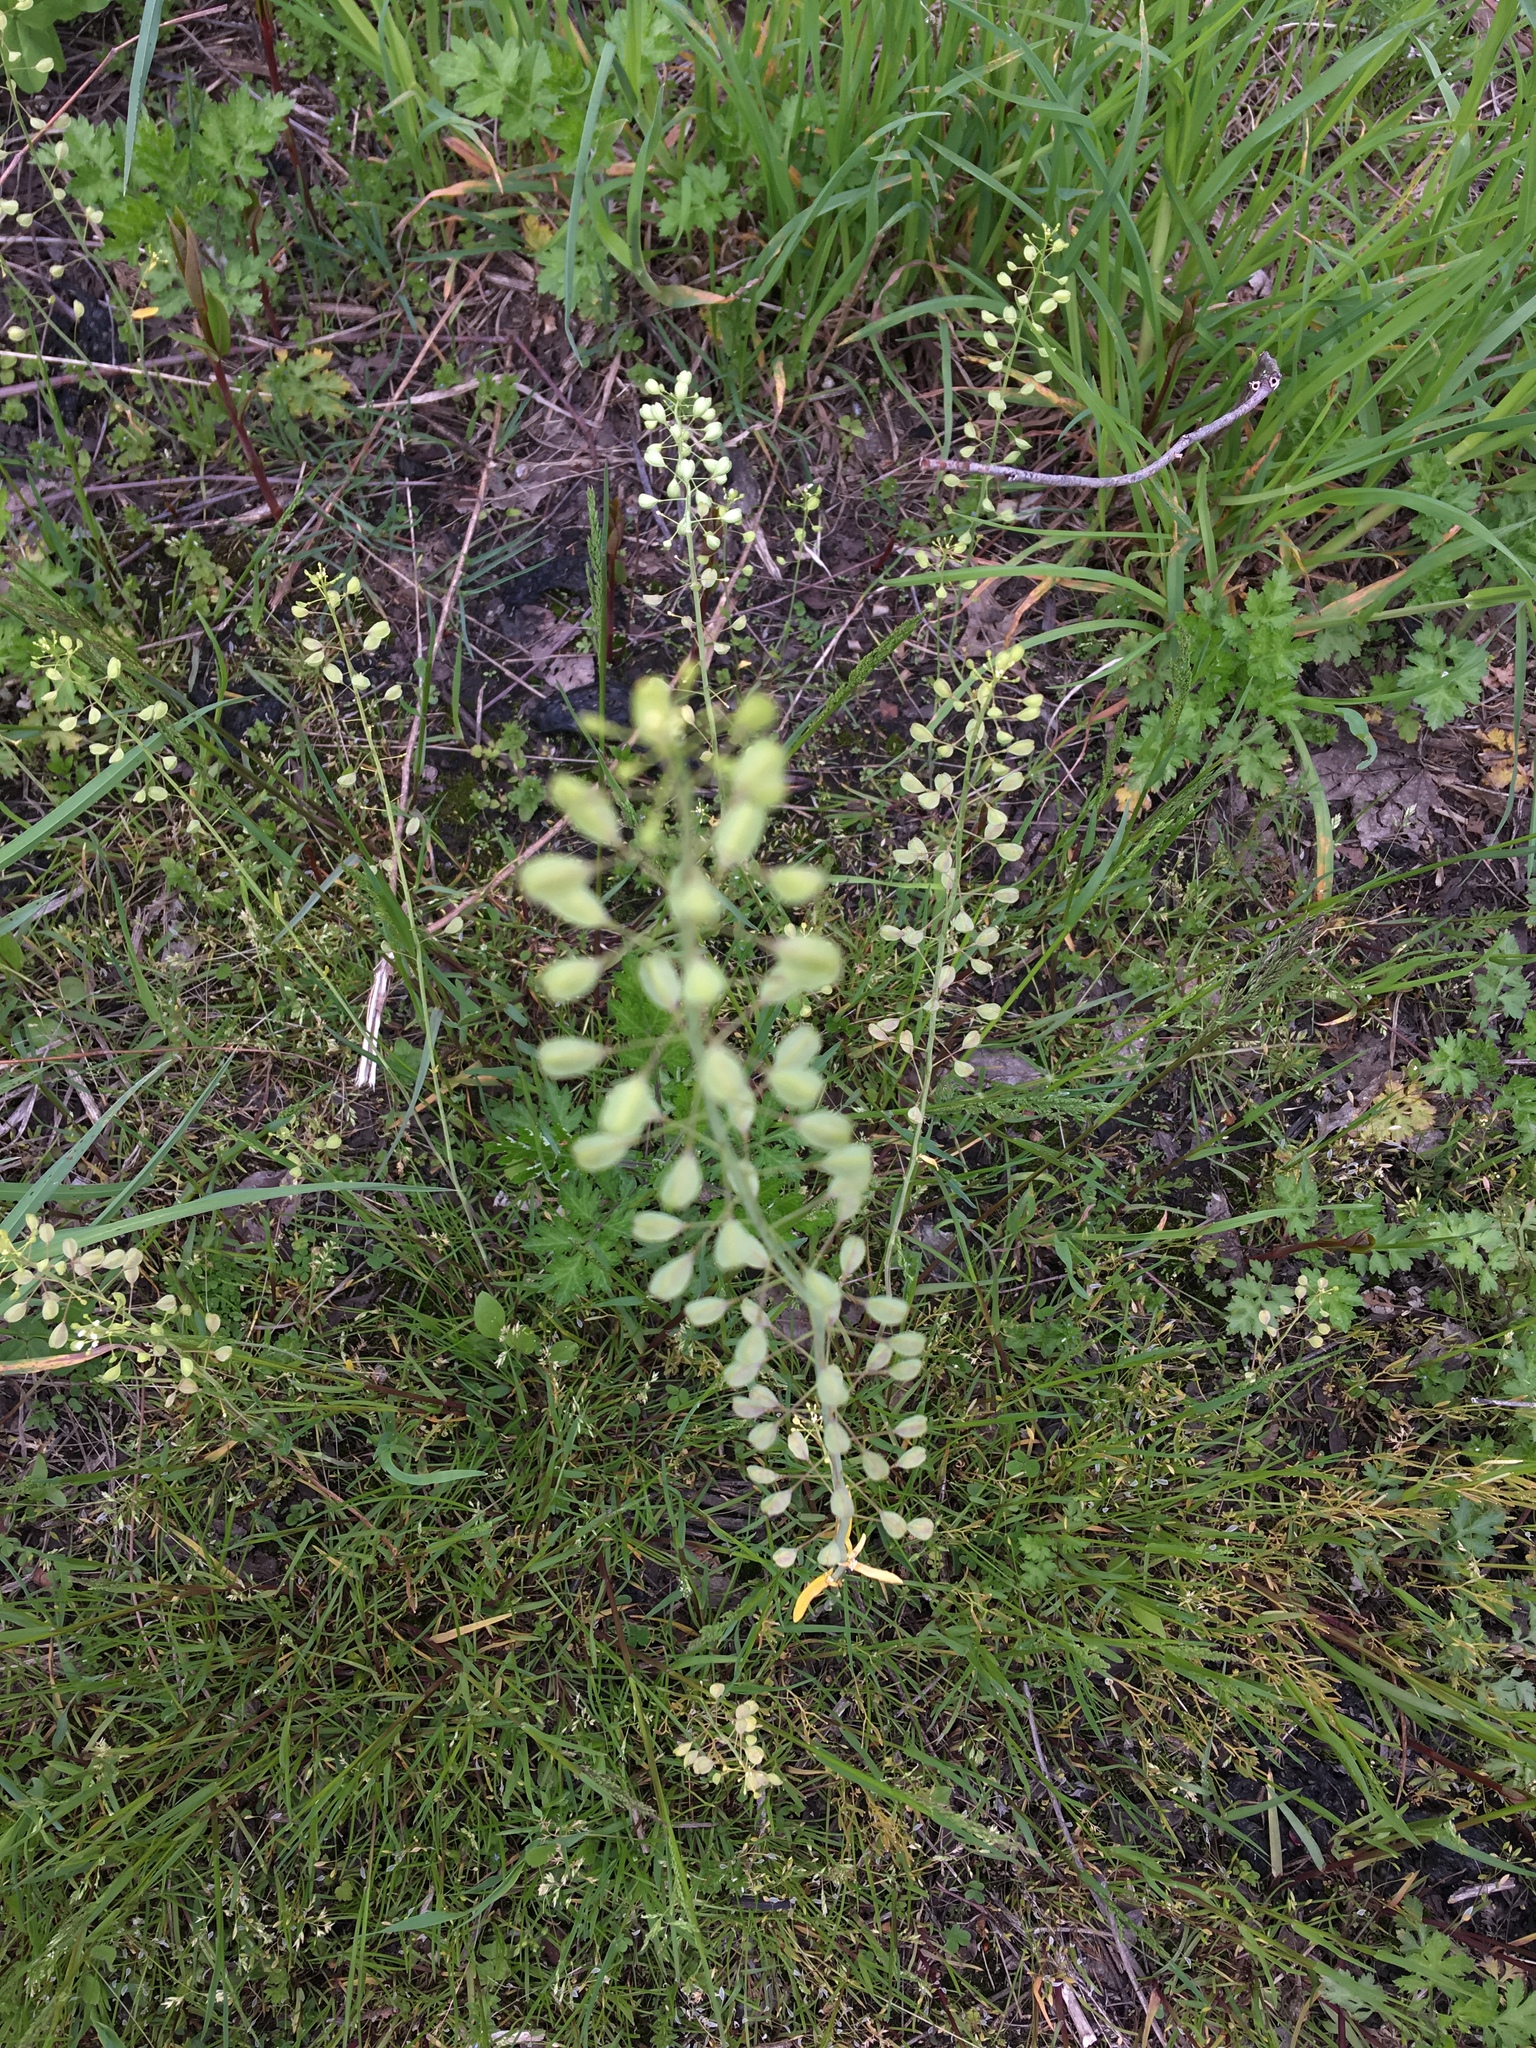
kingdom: Plantae
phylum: Tracheophyta
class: Magnoliopsida
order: Brassicales
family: Brassicaceae
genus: Mummenhoffia
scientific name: Mummenhoffia alliacea
